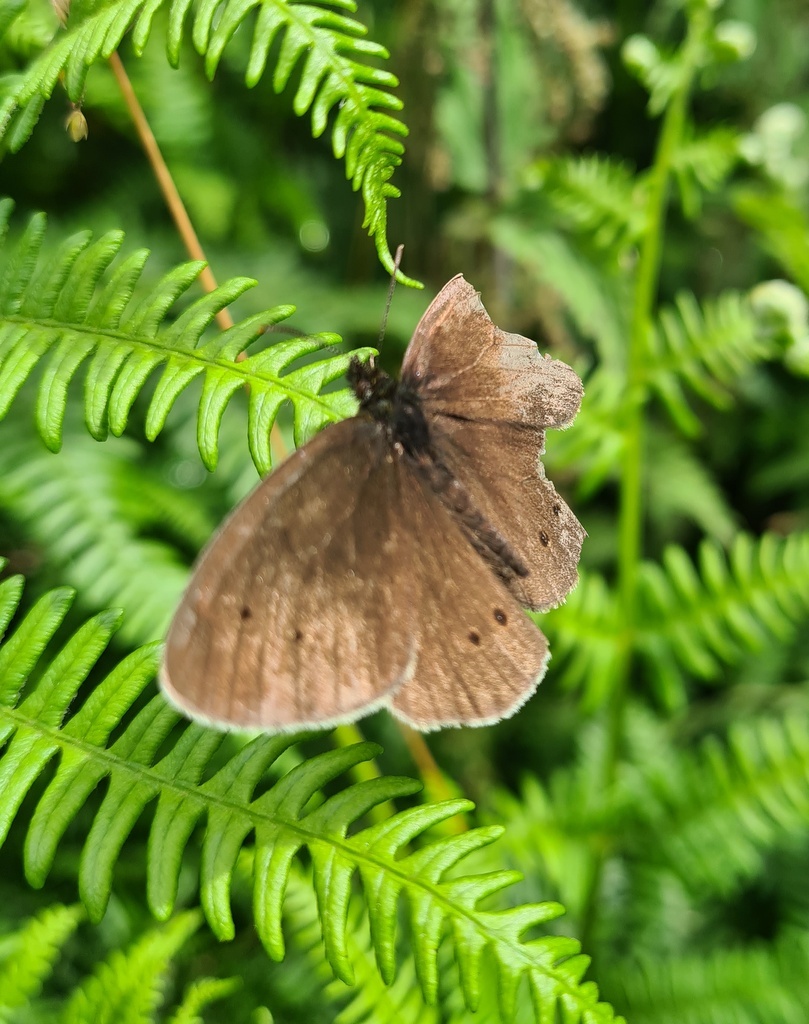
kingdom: Animalia
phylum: Arthropoda
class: Insecta
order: Lepidoptera
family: Nymphalidae
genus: Aphantopus
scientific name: Aphantopus hyperantus
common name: Ringlet
